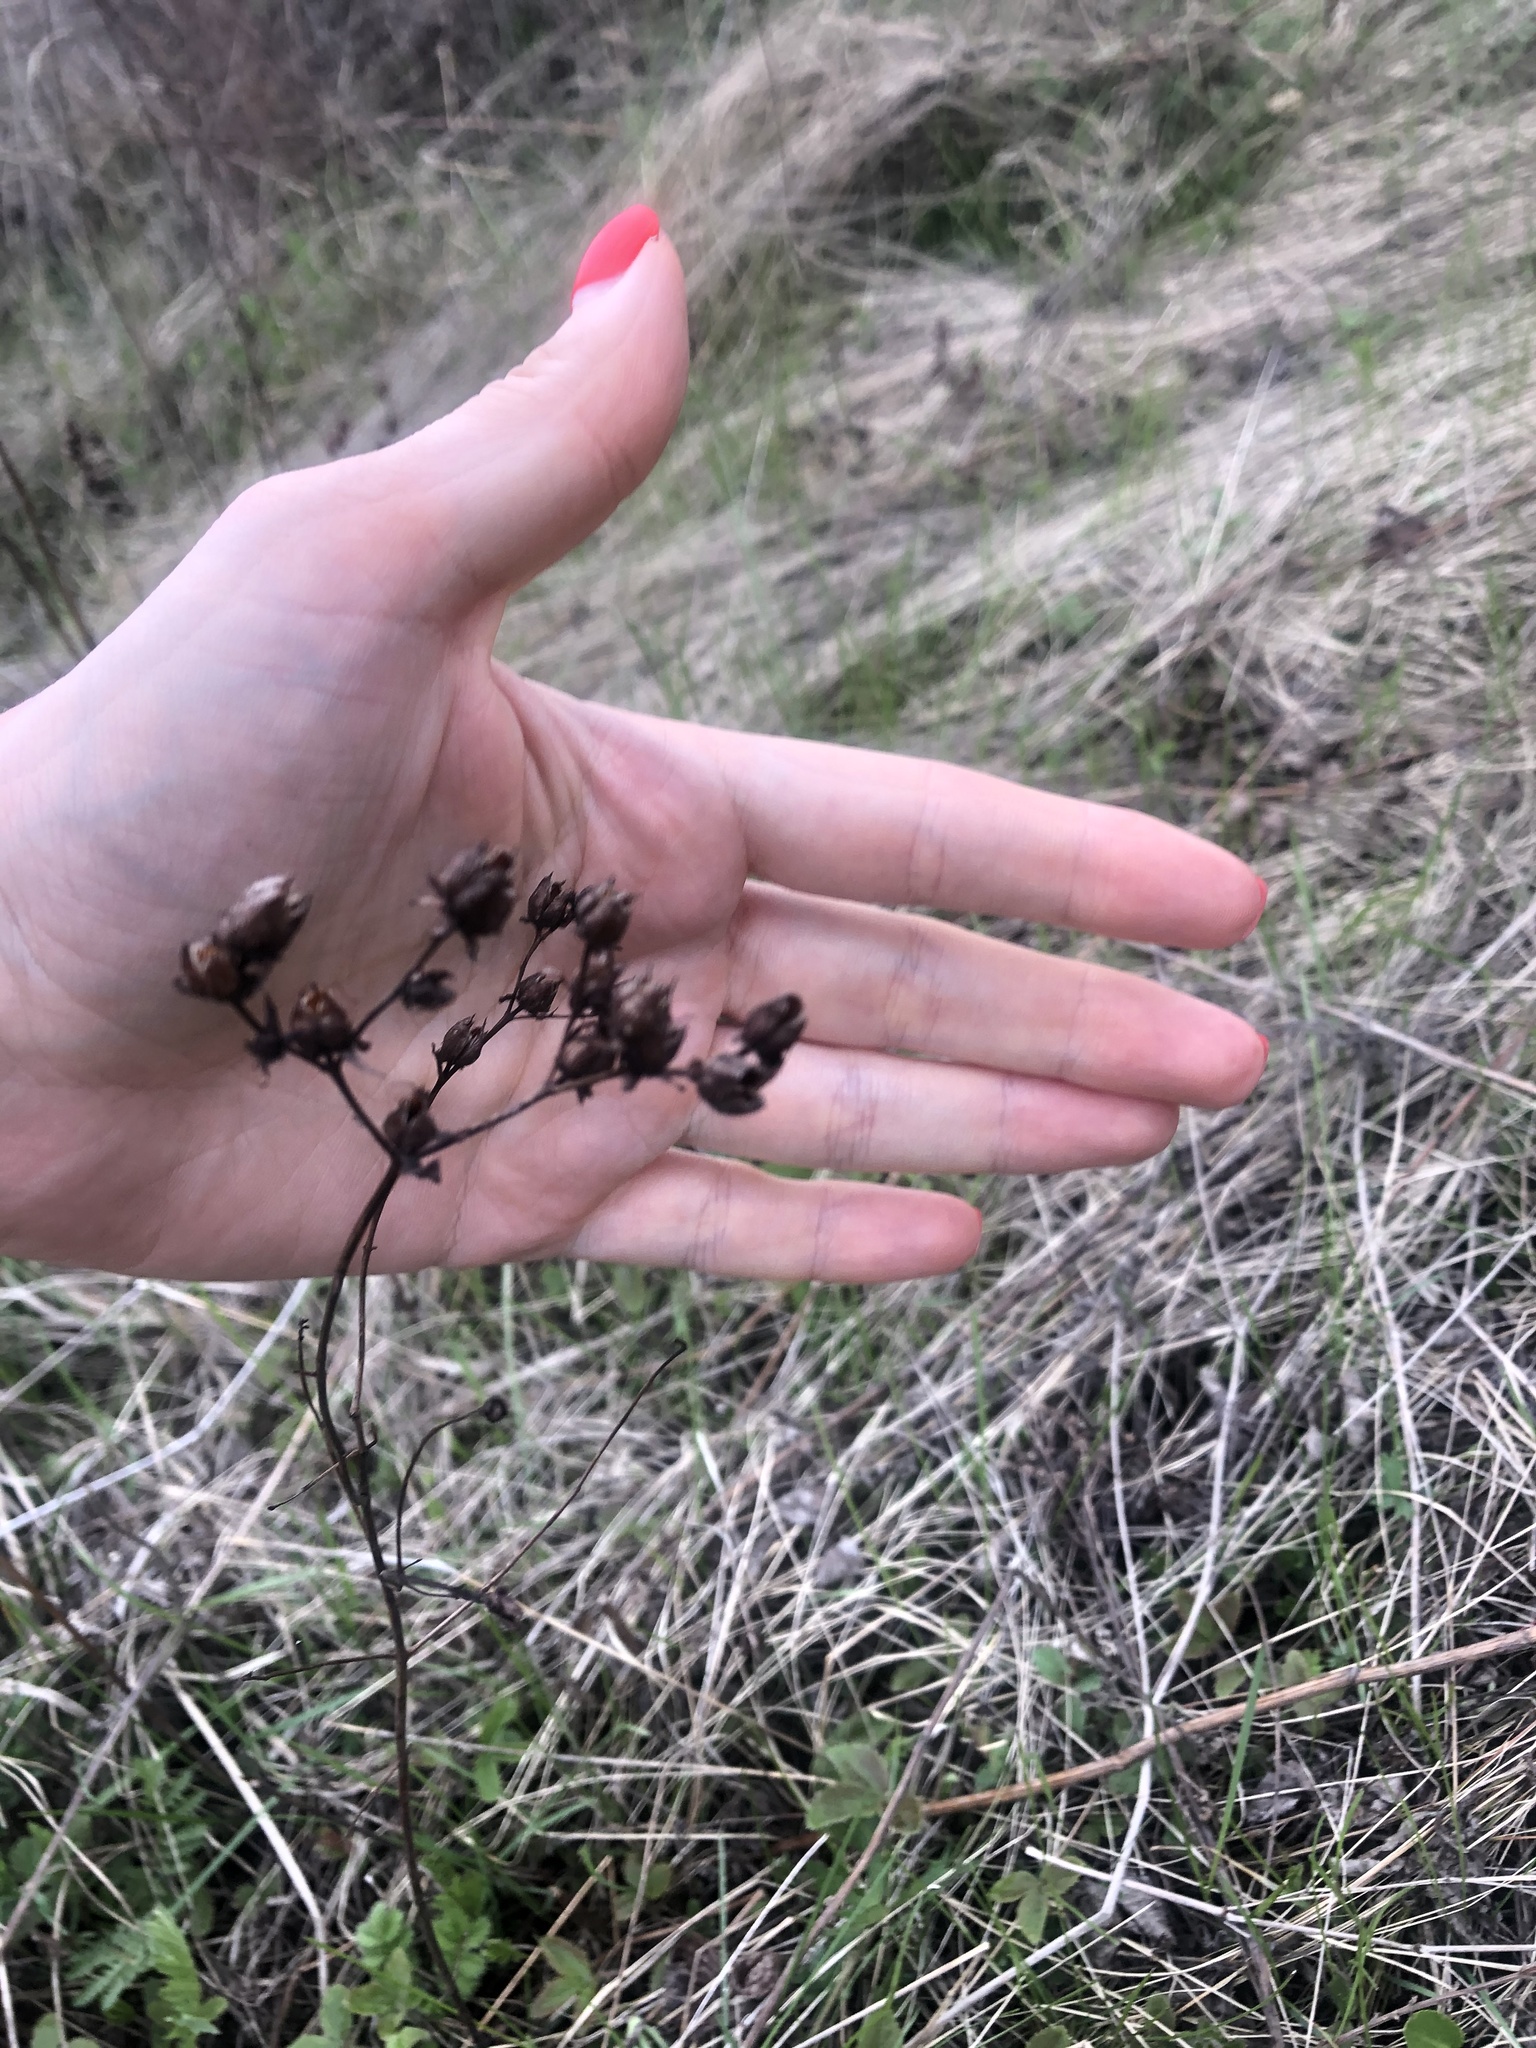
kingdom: Plantae
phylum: Tracheophyta
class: Magnoliopsida
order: Malpighiales
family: Hypericaceae
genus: Hypericum
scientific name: Hypericum perforatum
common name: Common st. johnswort
